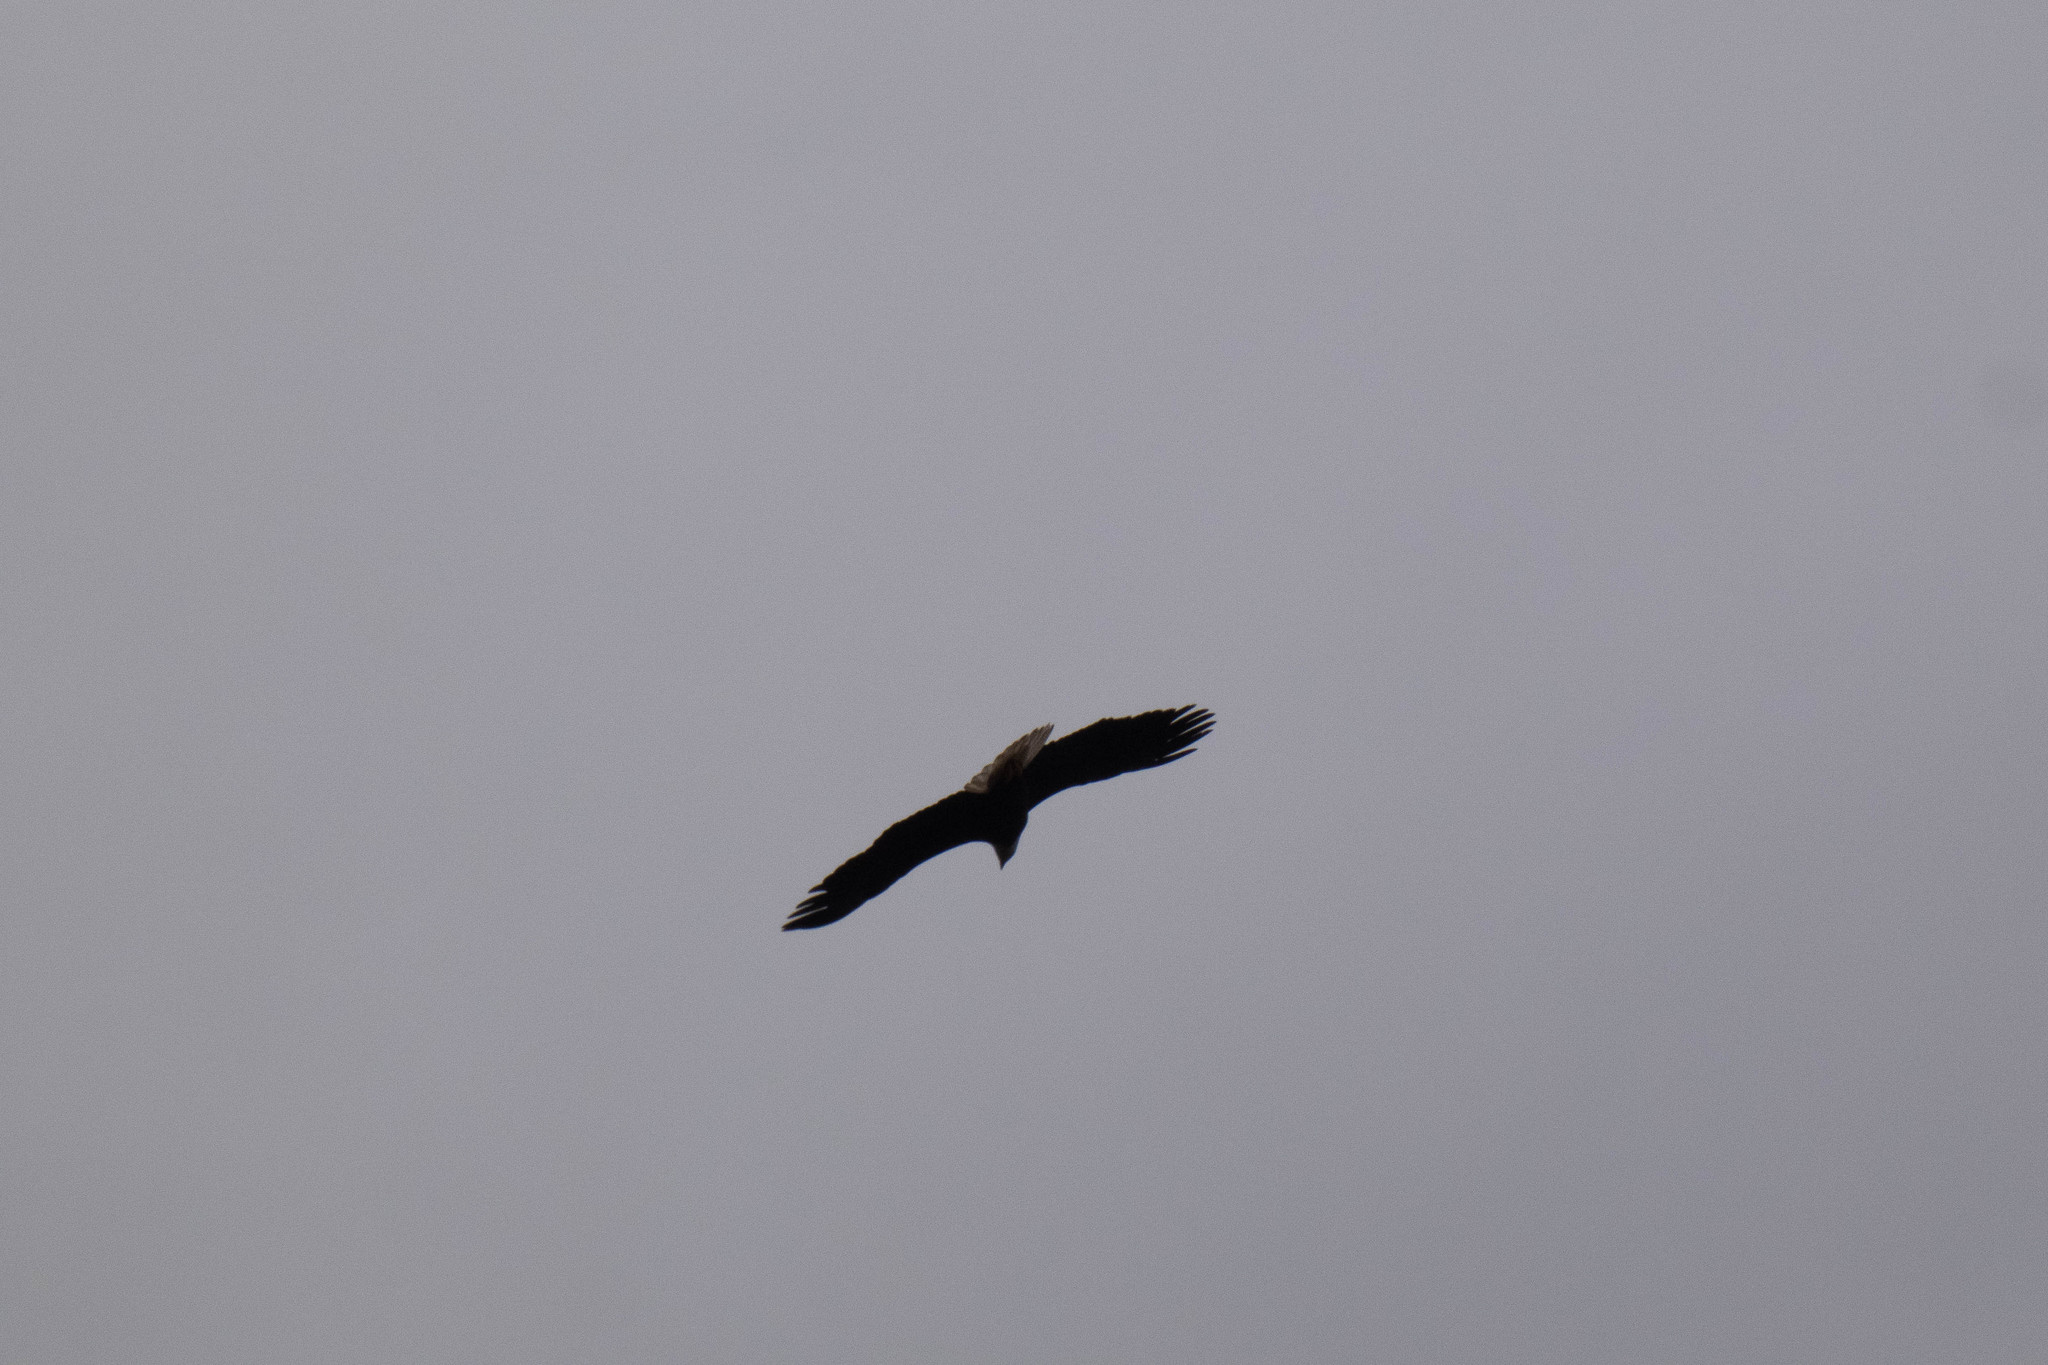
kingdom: Animalia
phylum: Chordata
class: Aves
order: Accipitriformes
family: Accipitridae
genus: Haliaeetus
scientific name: Haliaeetus leucocephalus
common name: Bald eagle
